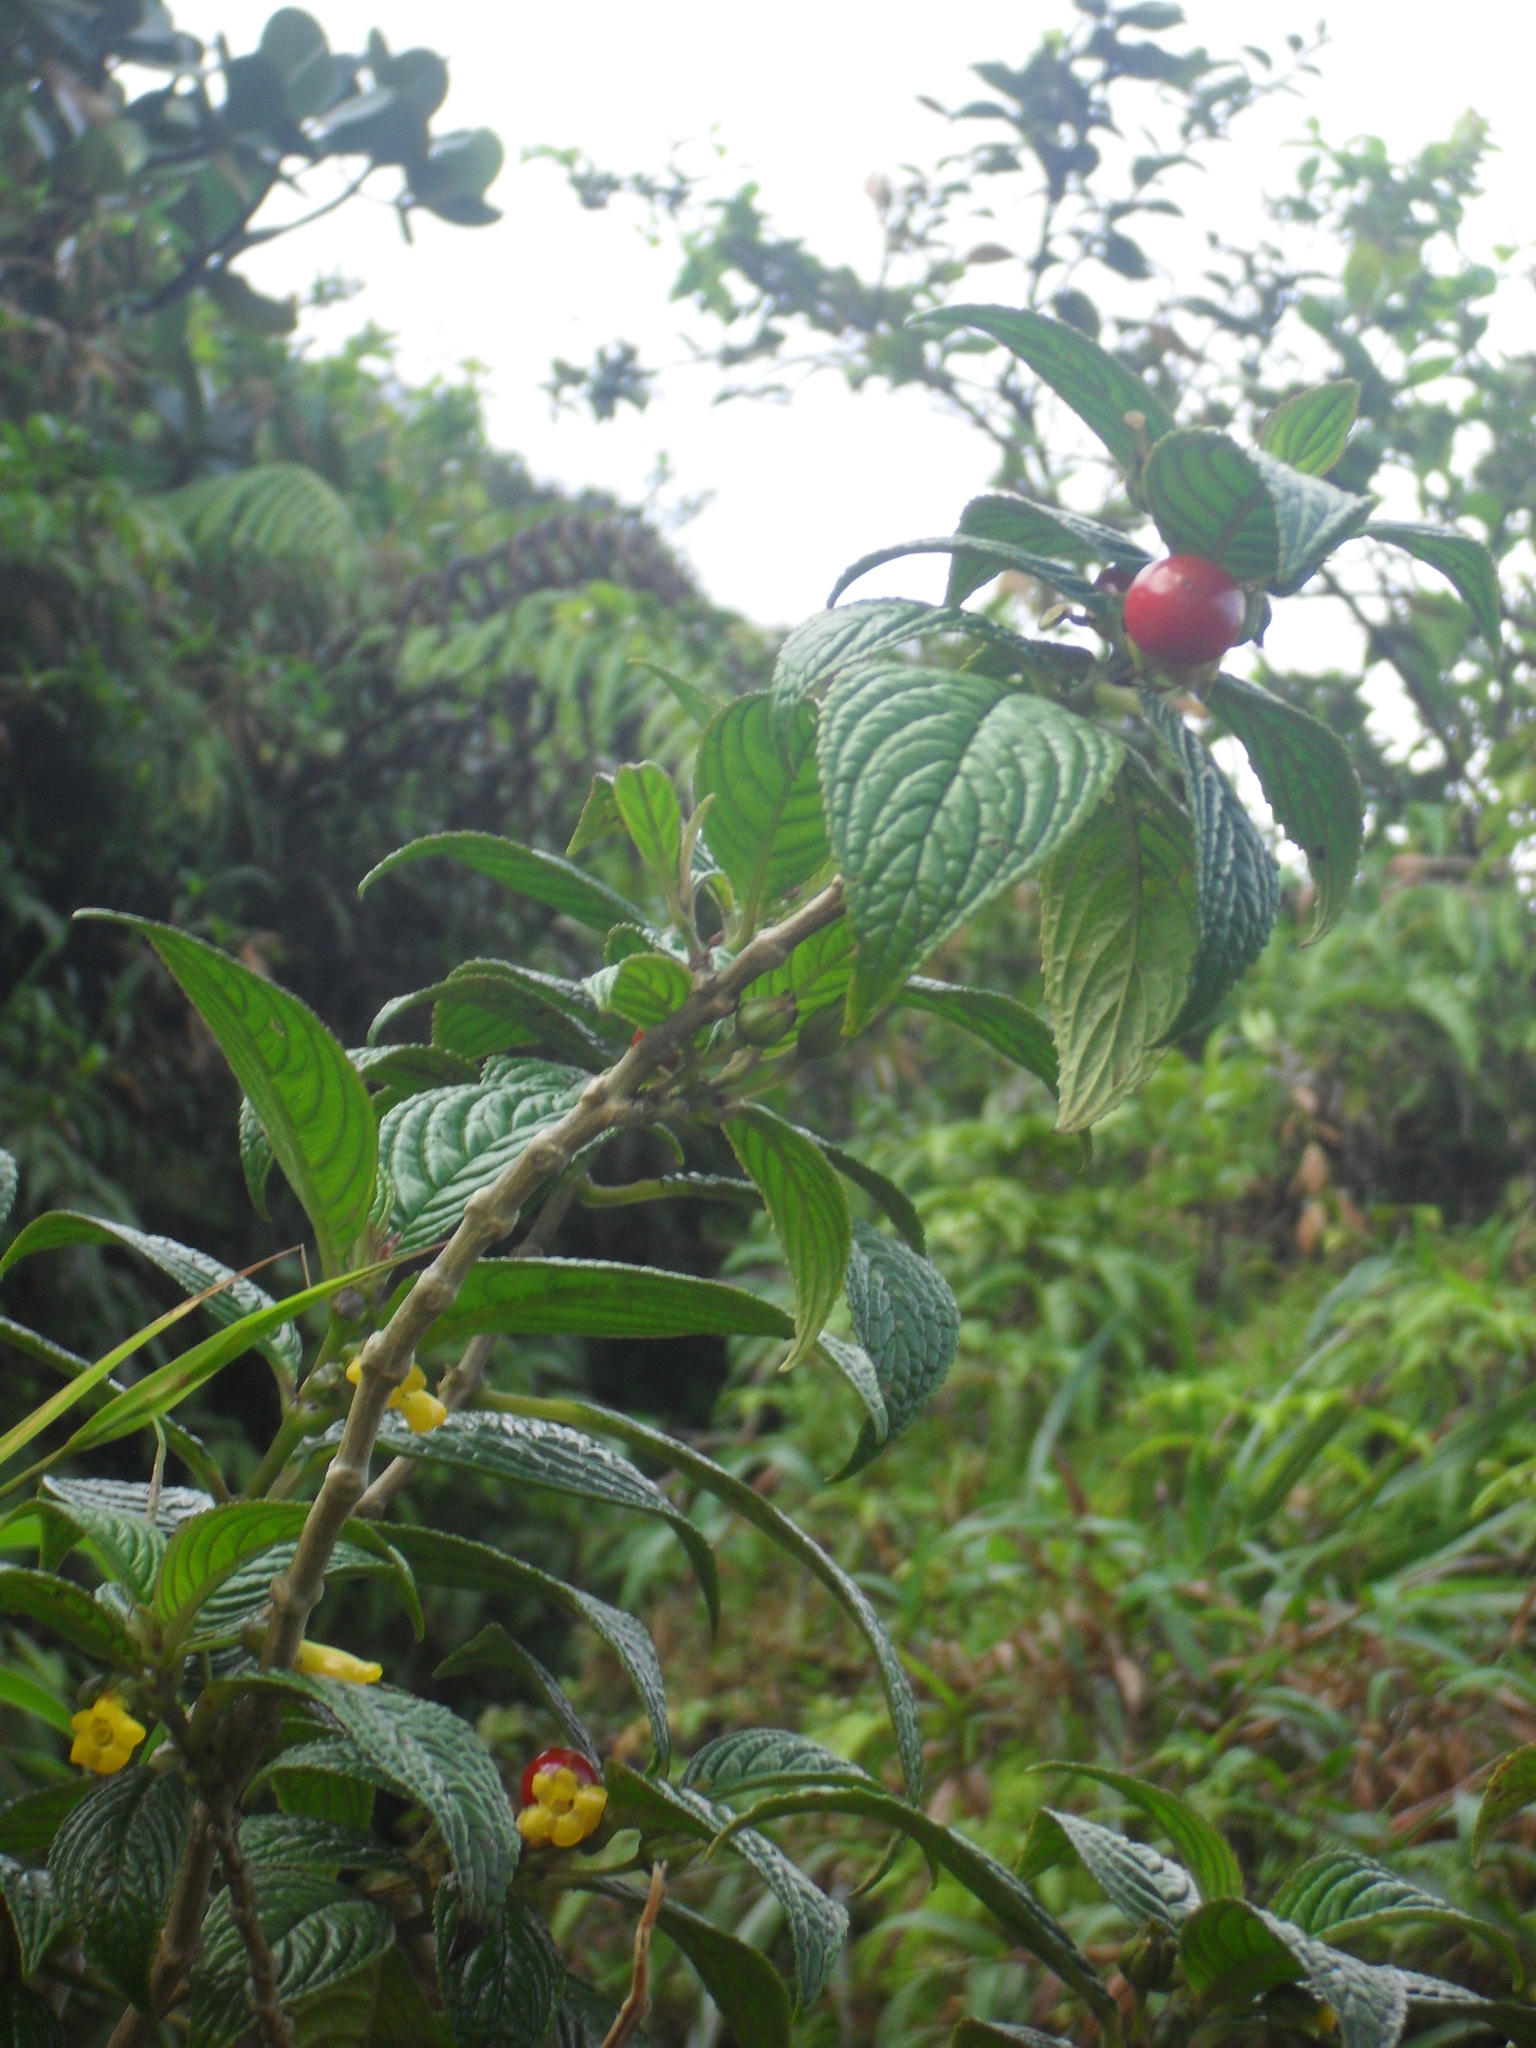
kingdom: Plantae
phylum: Tracheophyta
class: Magnoliopsida
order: Lamiales
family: Gesneriaceae
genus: Besleria
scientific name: Besleria lutea
